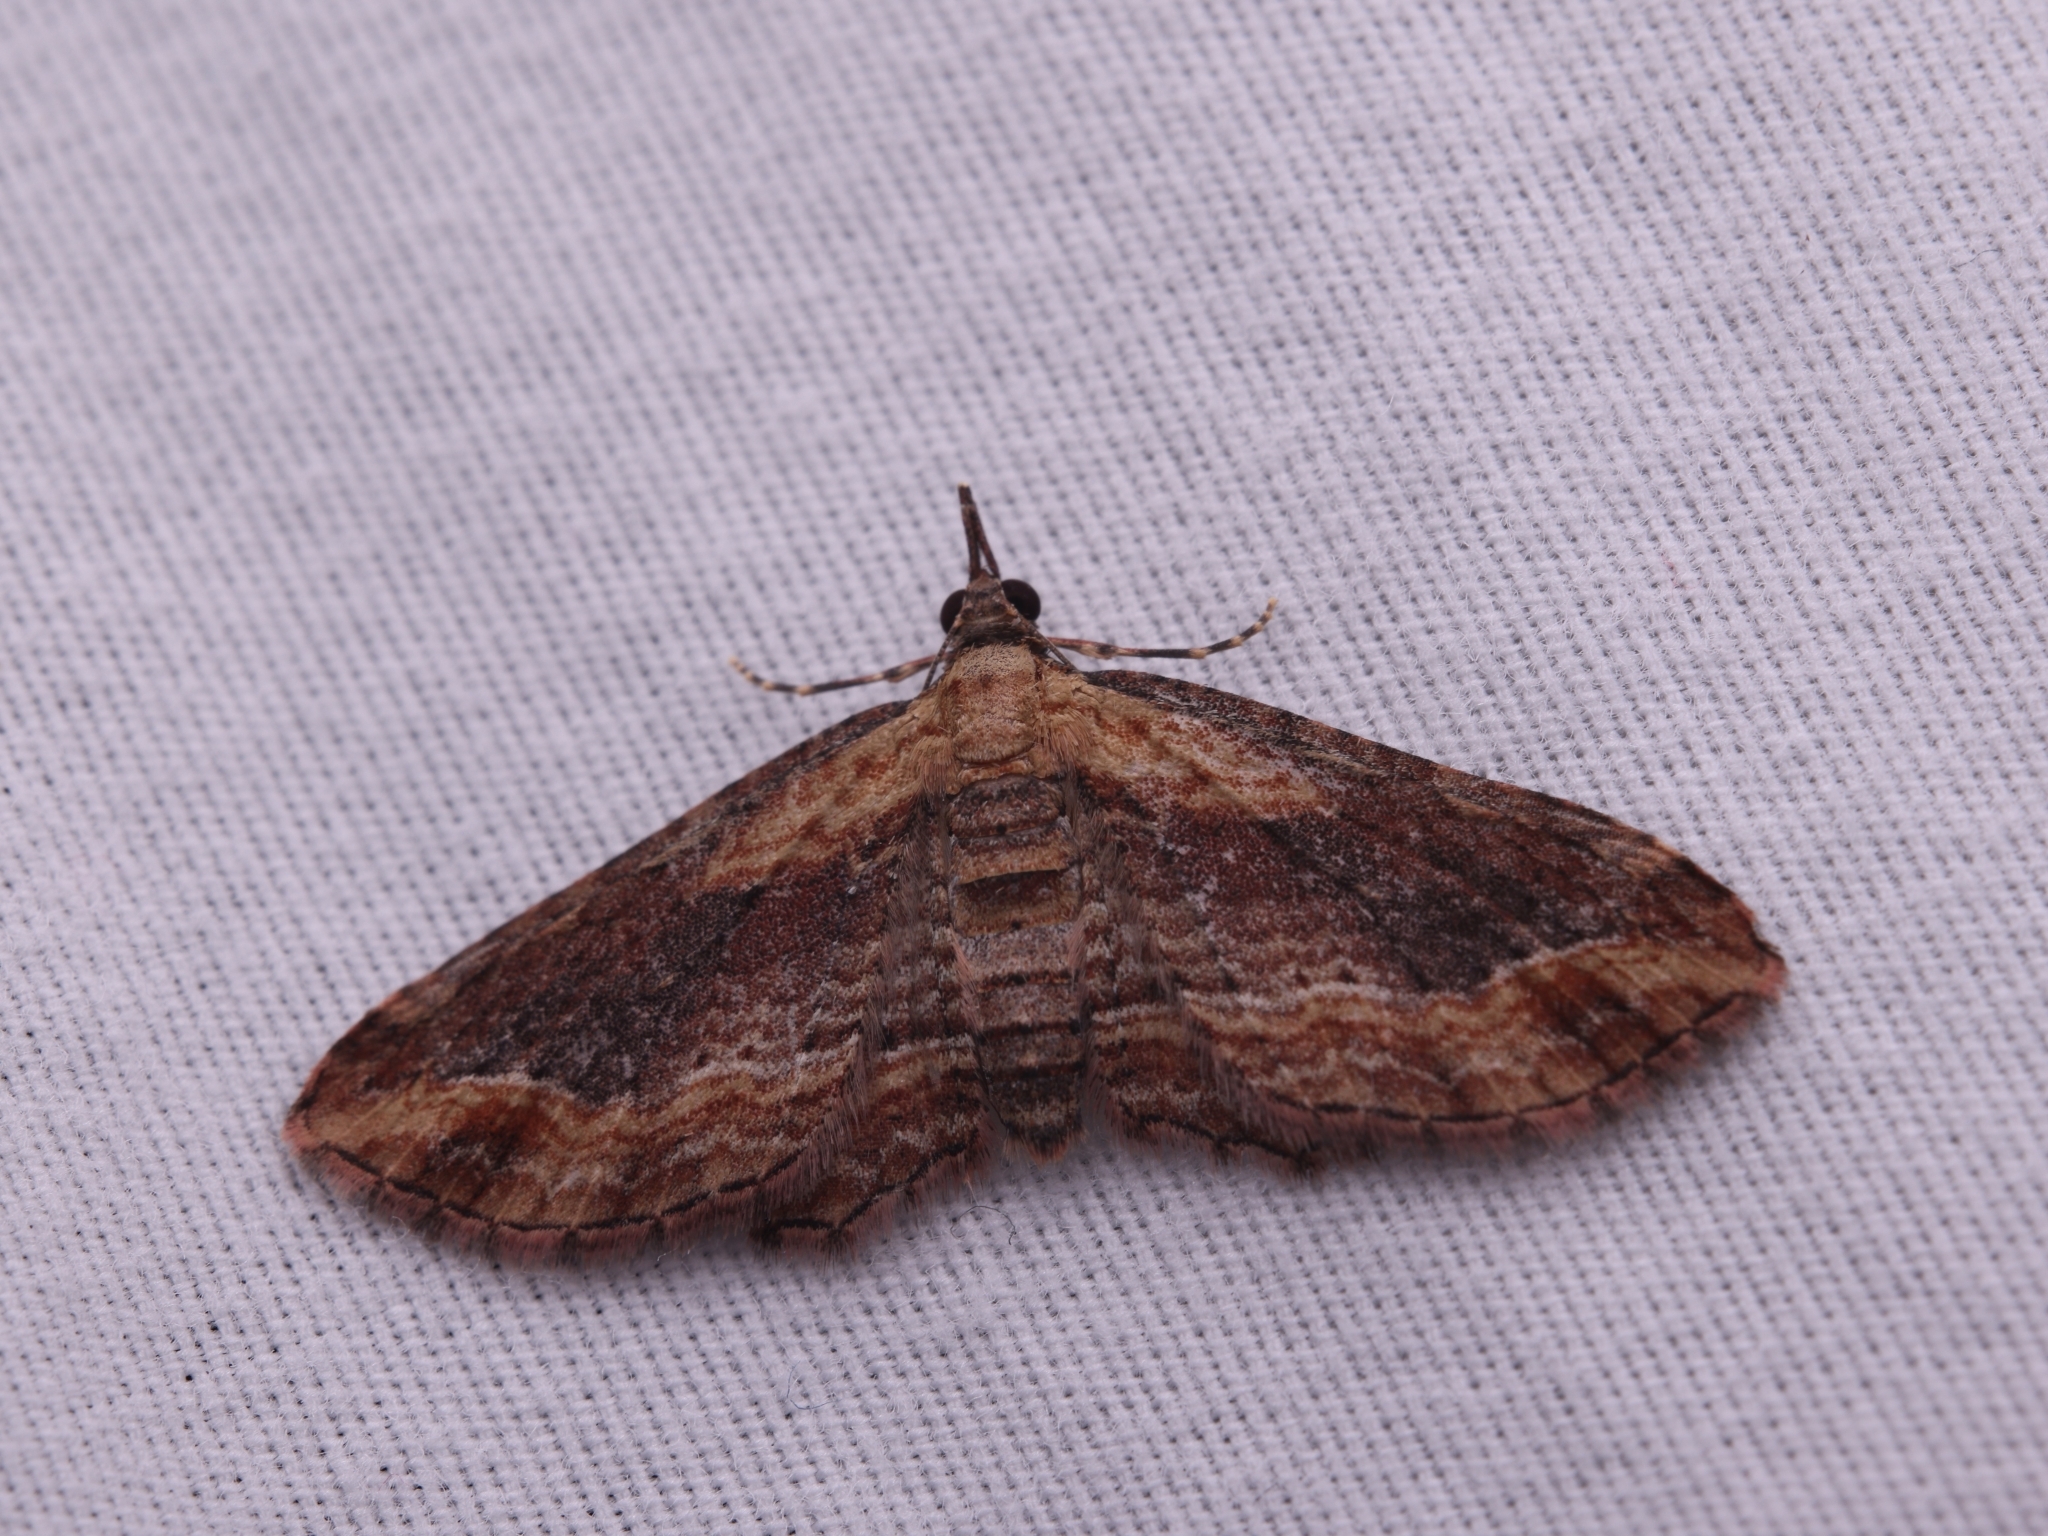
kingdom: Animalia
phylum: Arthropoda
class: Insecta
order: Lepidoptera
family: Geometridae
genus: Chloroclystis
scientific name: Chloroclystis filata
